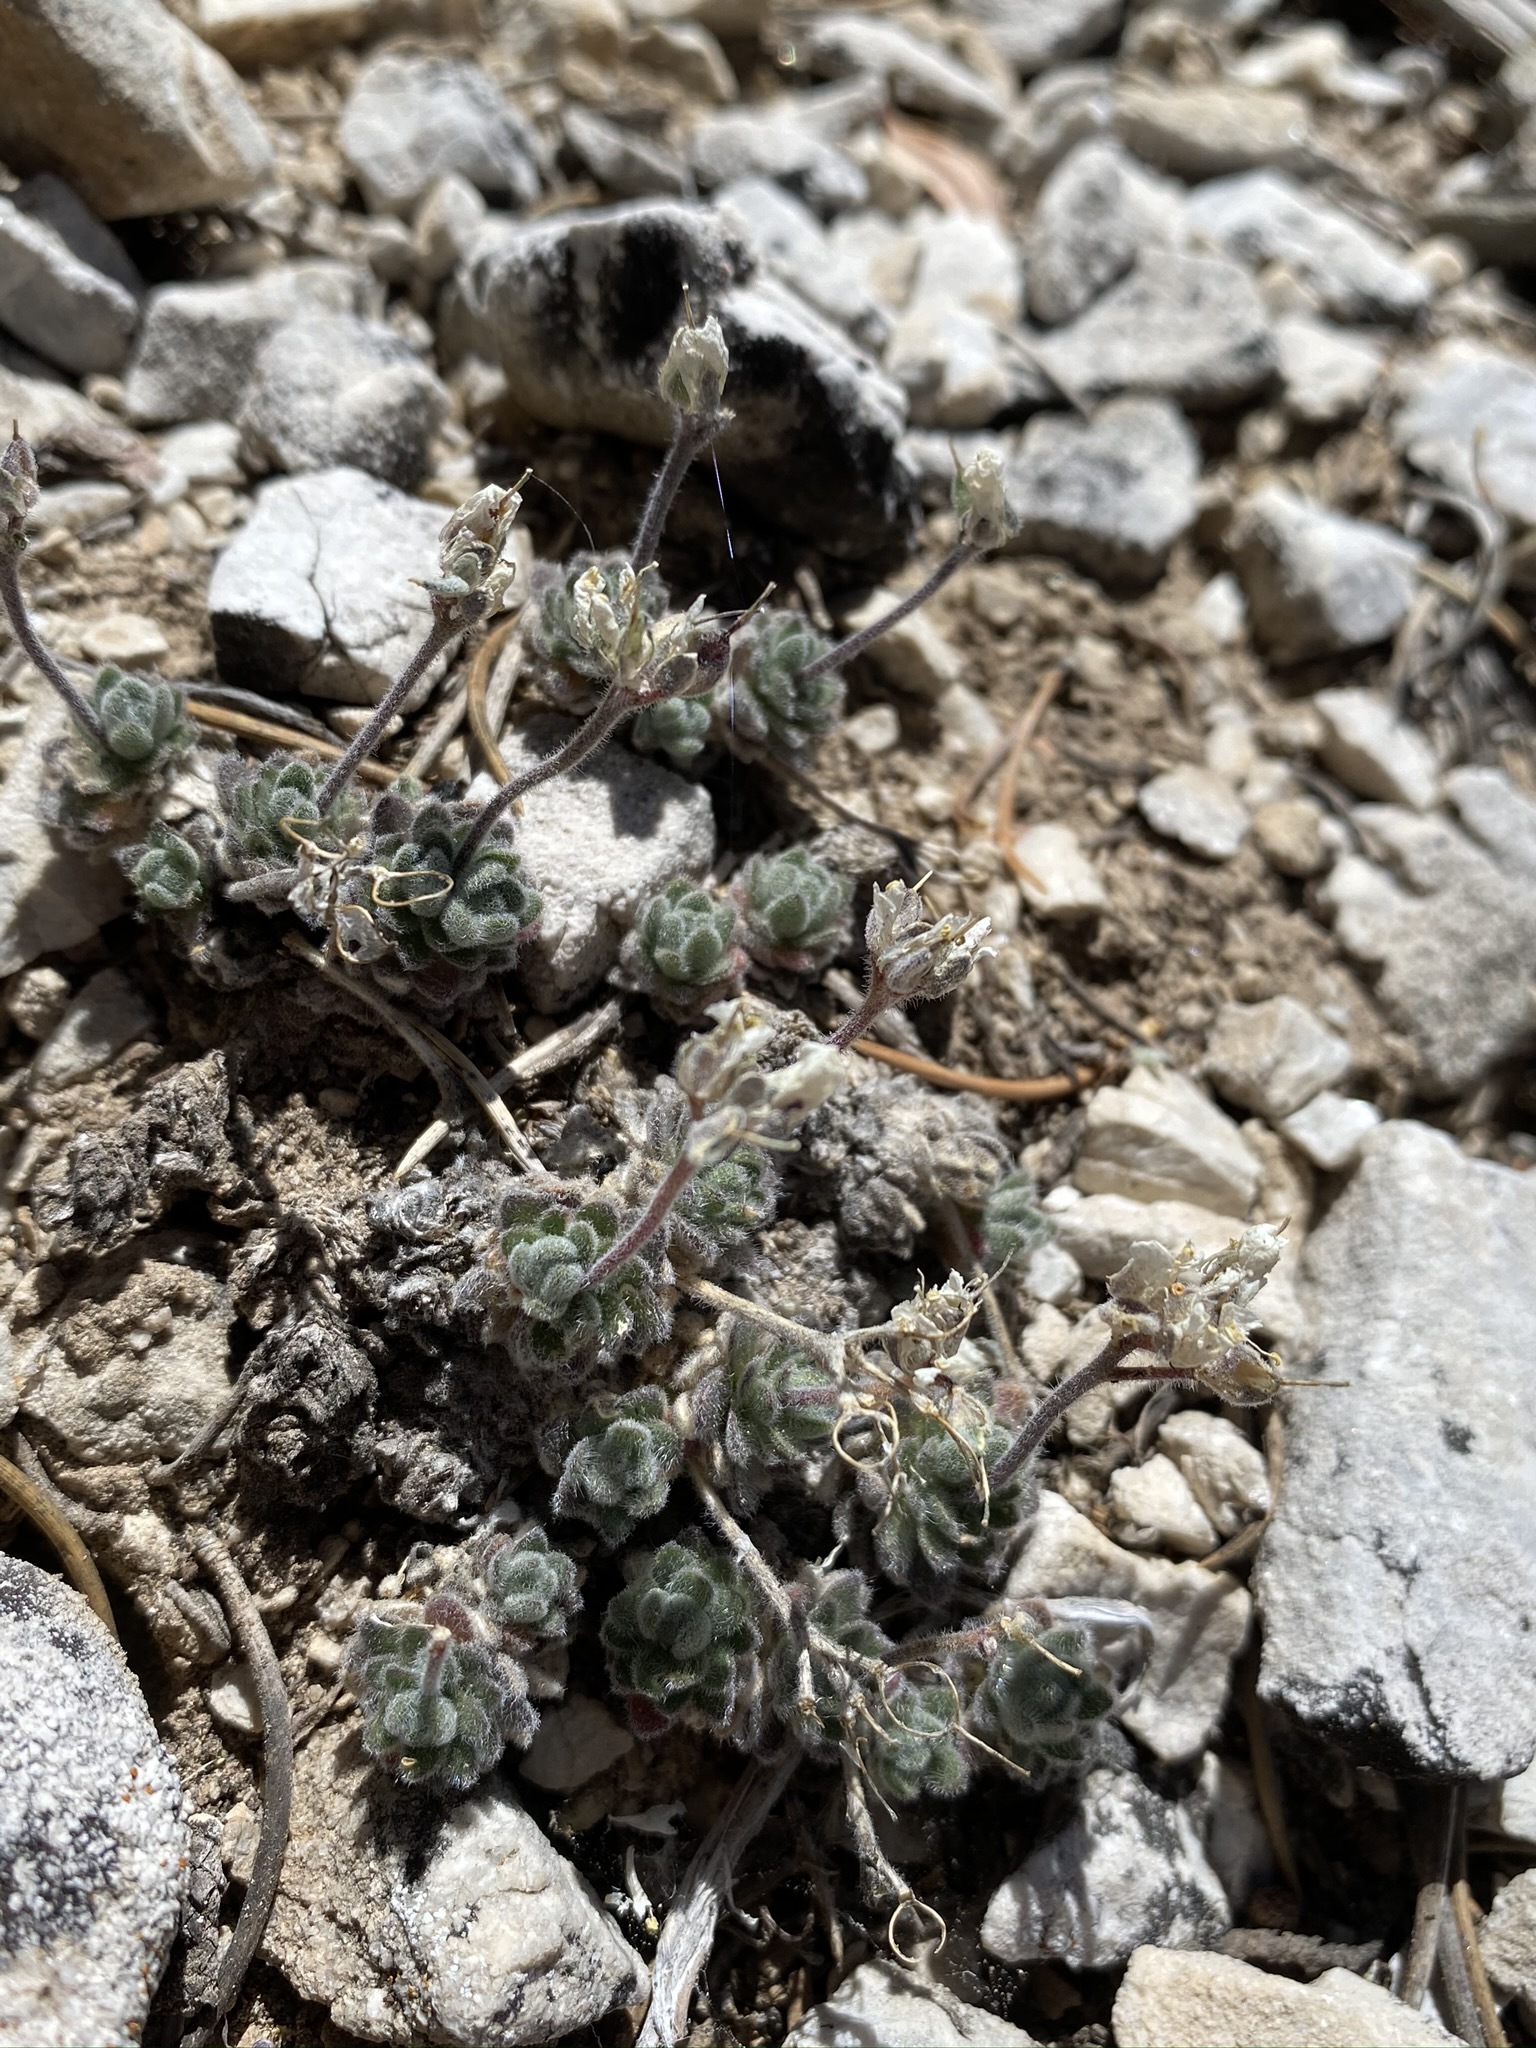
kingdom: Plantae
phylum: Tracheophyta
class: Magnoliopsida
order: Brassicales
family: Brassicaceae
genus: Draba
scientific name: Draba jaegeri
